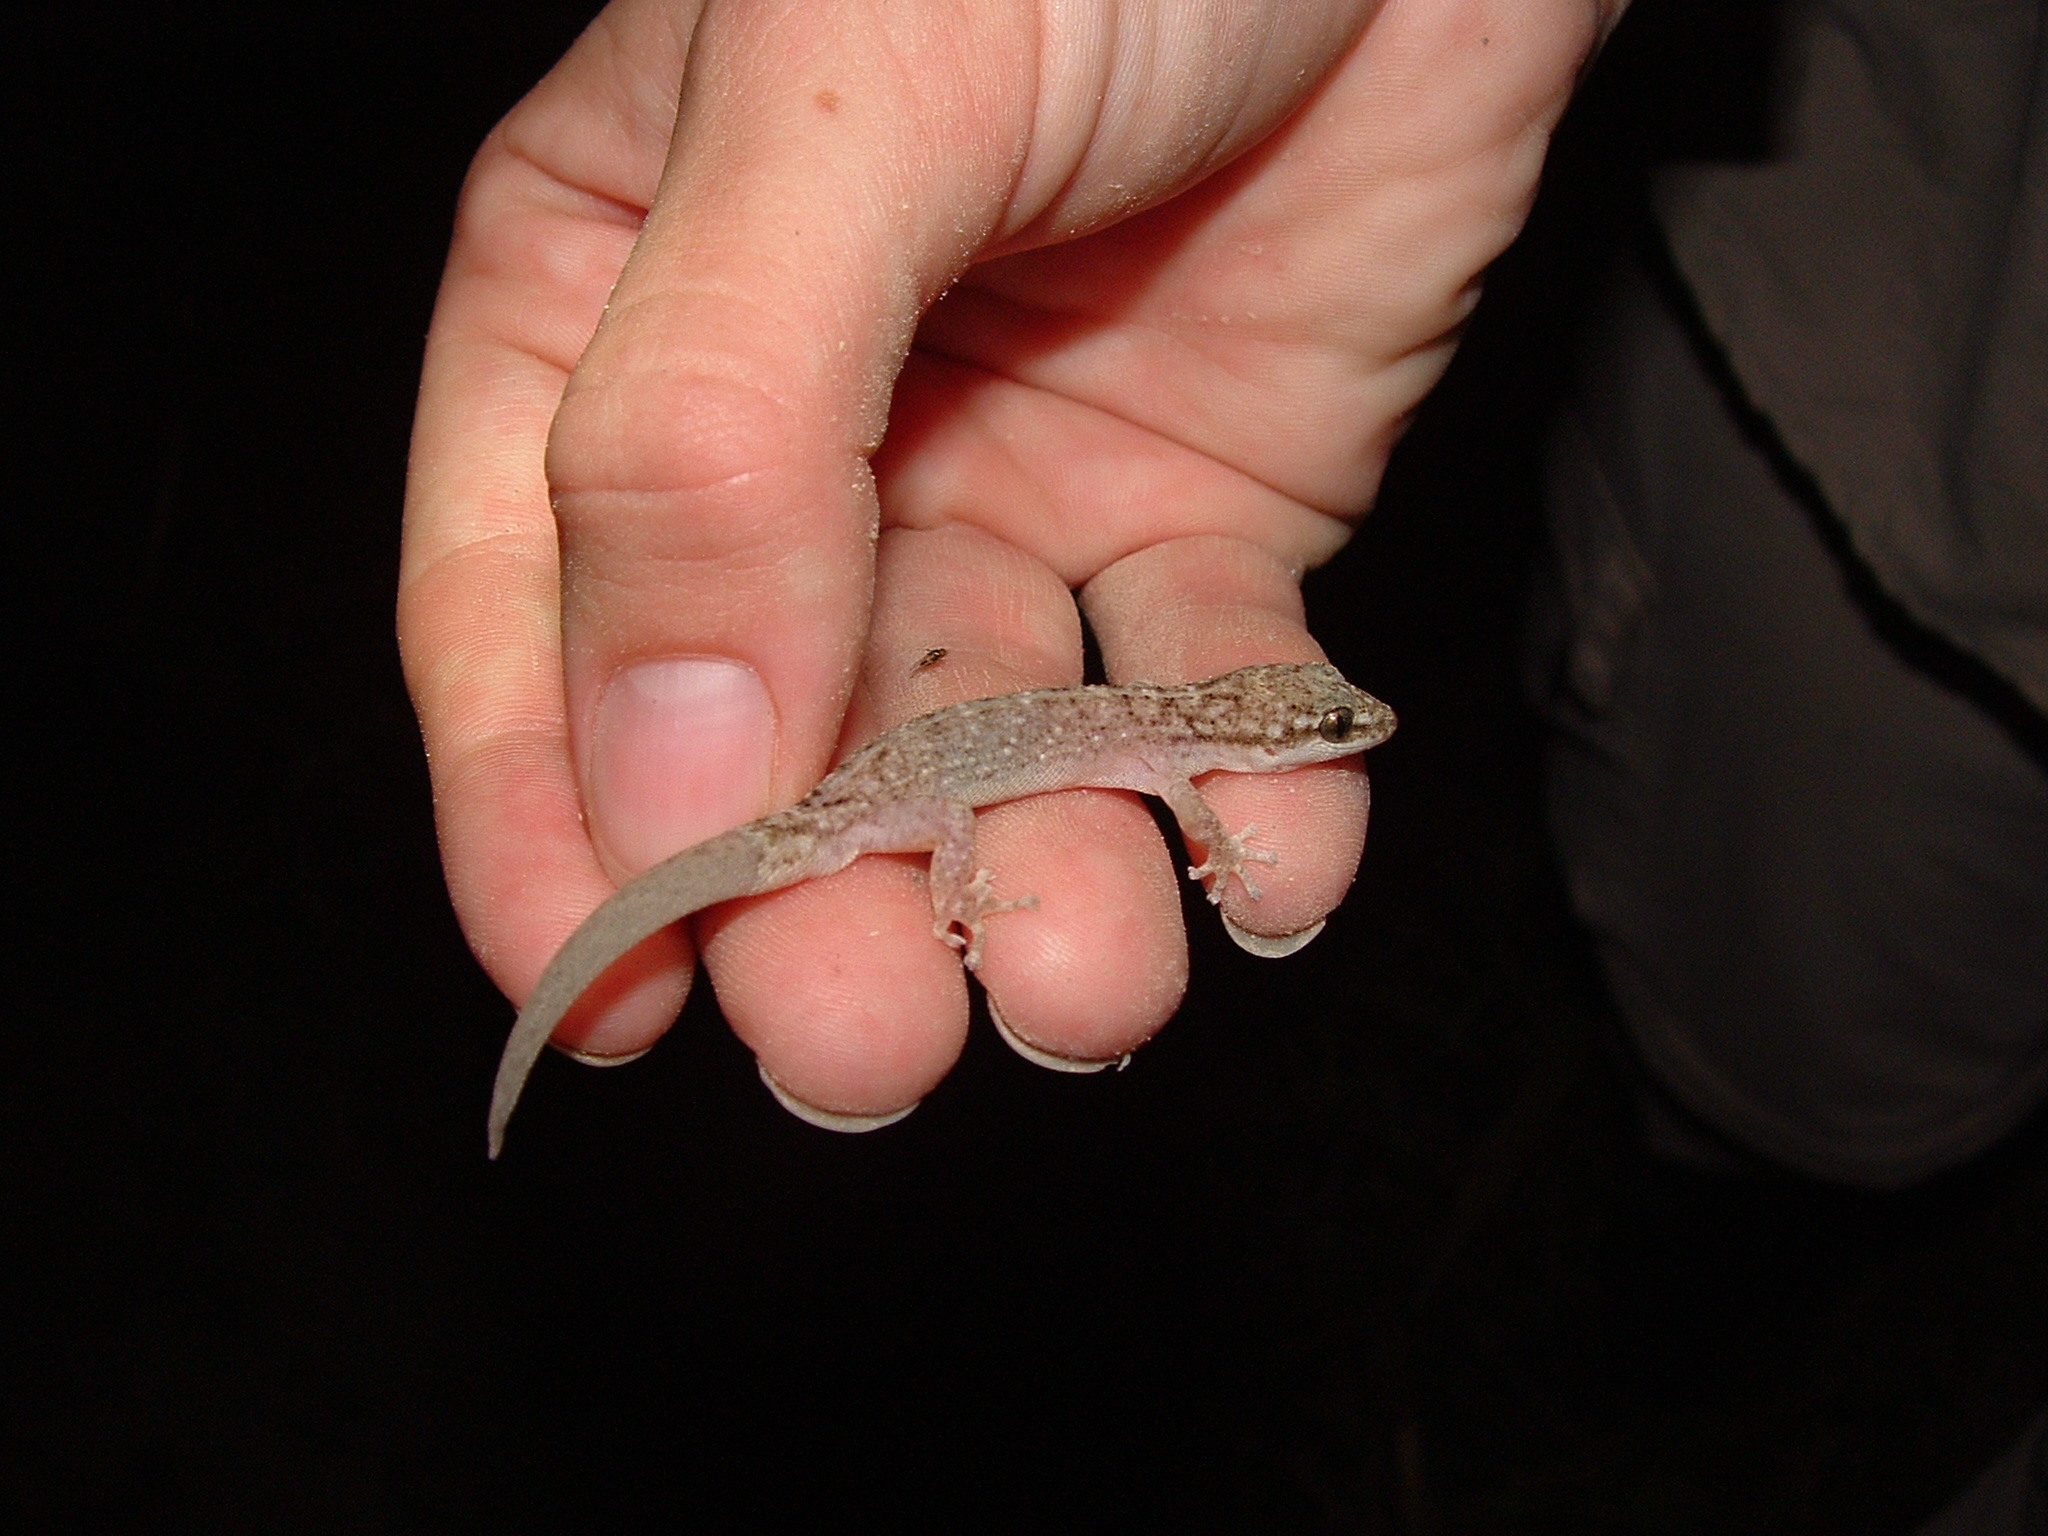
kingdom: Animalia
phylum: Chordata
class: Squamata
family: Phyllodactylidae
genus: Phyllodactylus
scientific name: Phyllodactylus reissii
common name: Peters' leaf-toed gecko
